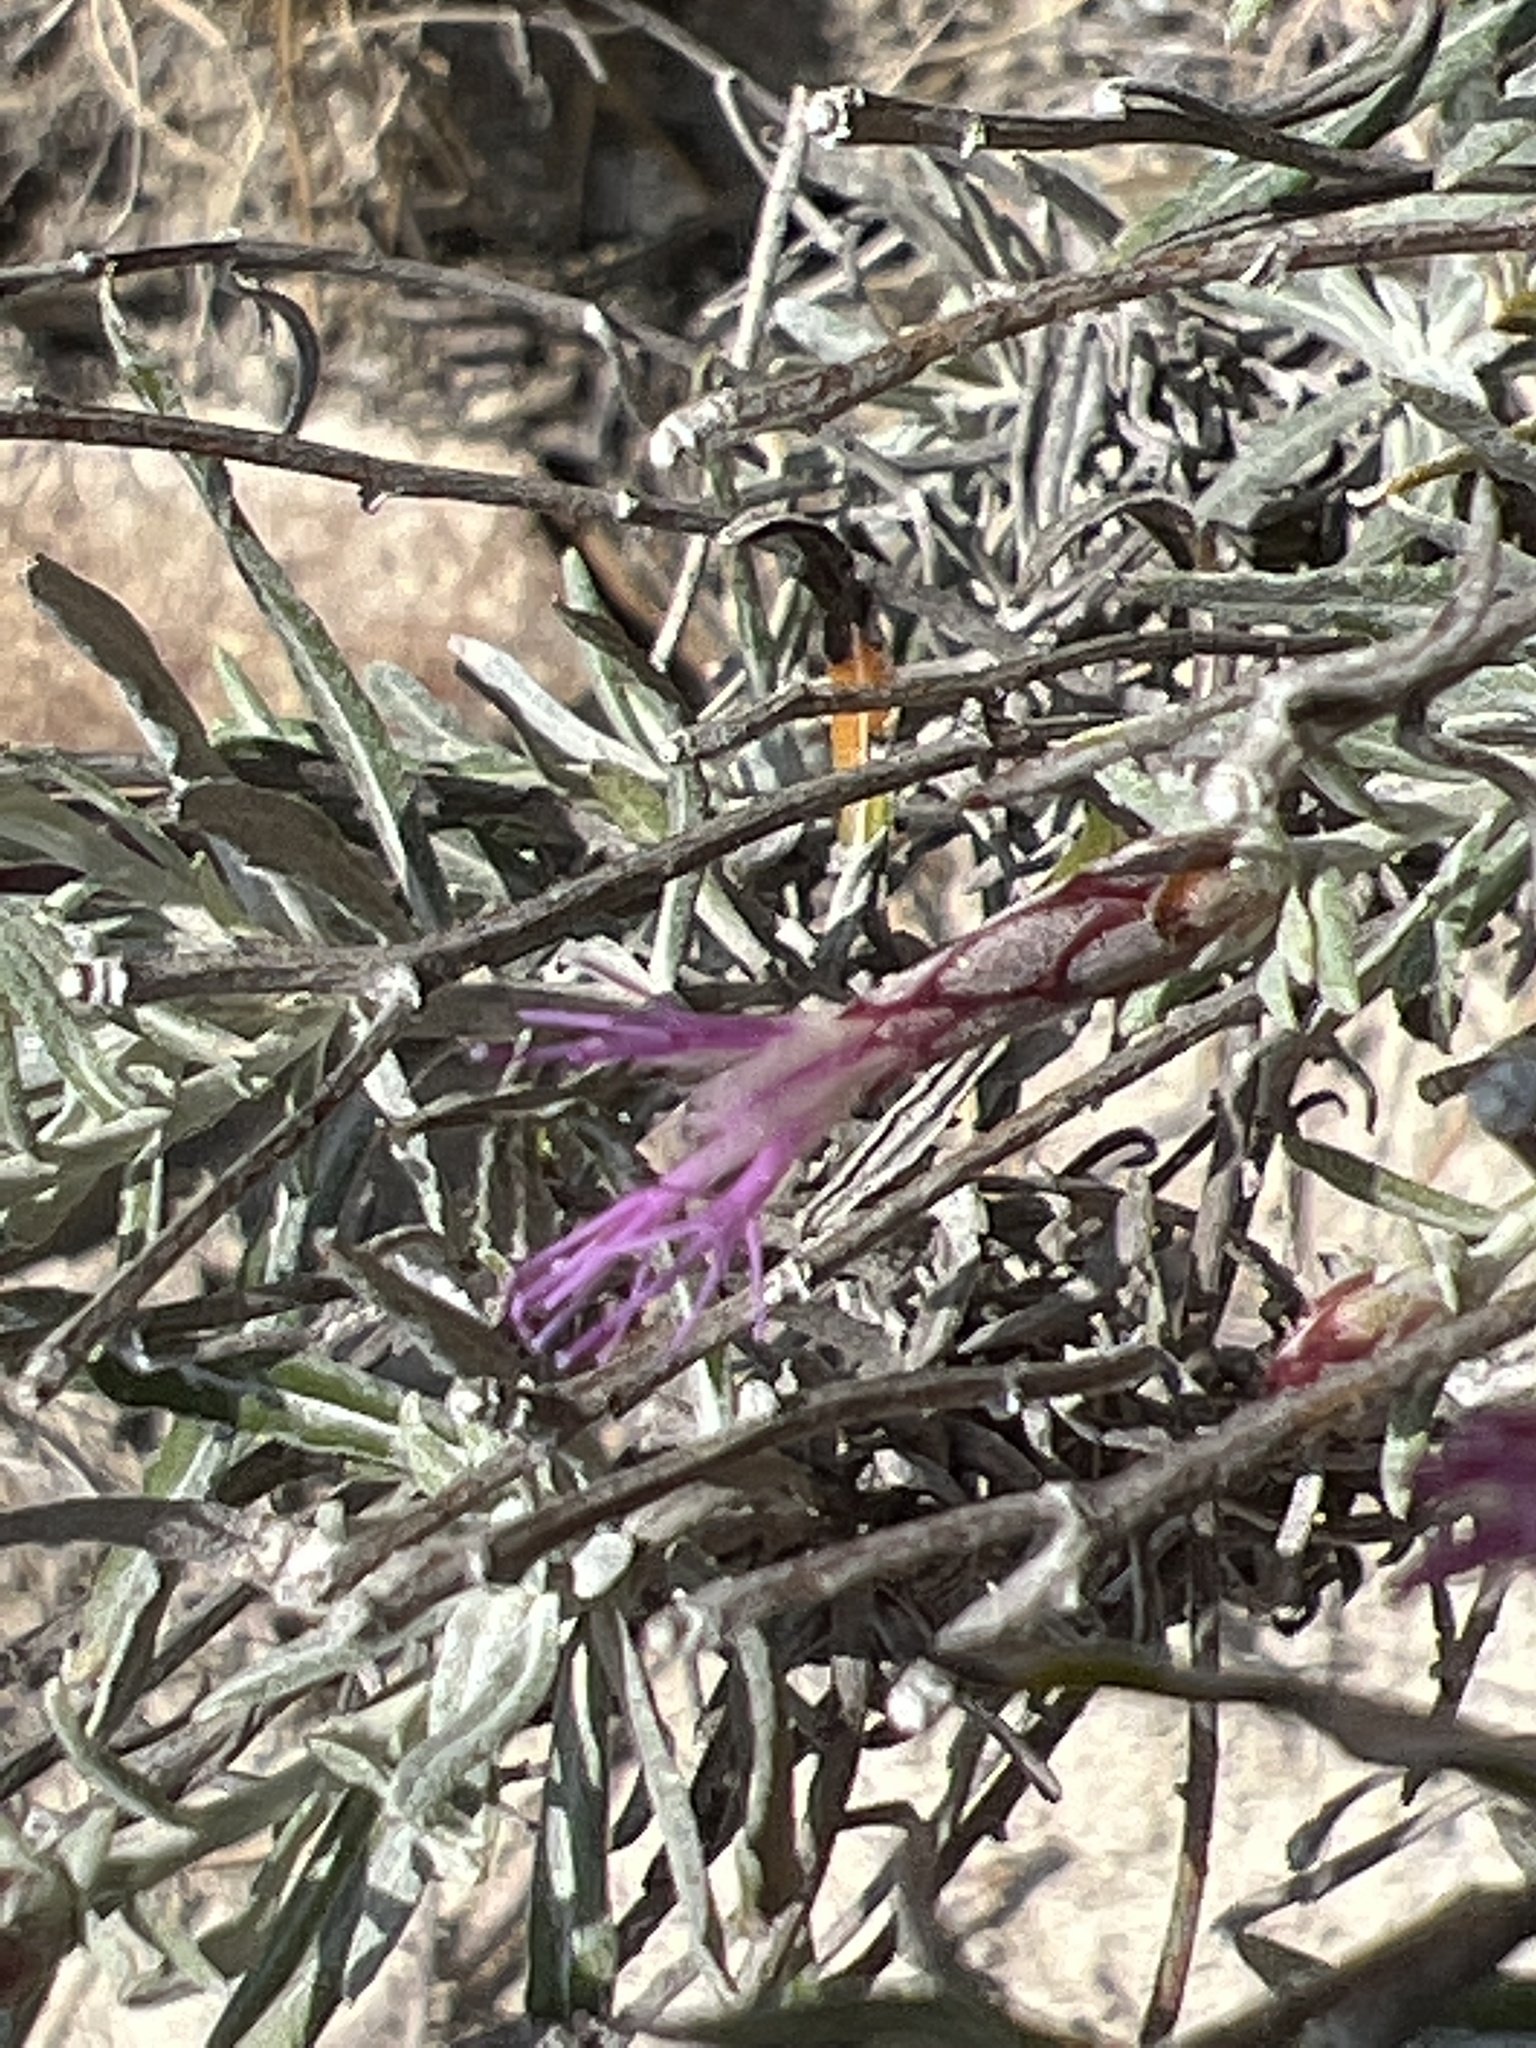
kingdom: Plantae
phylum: Tracheophyta
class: Magnoliopsida
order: Asterales
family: Asteraceae
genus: Staehelina
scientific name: Staehelina dubia
